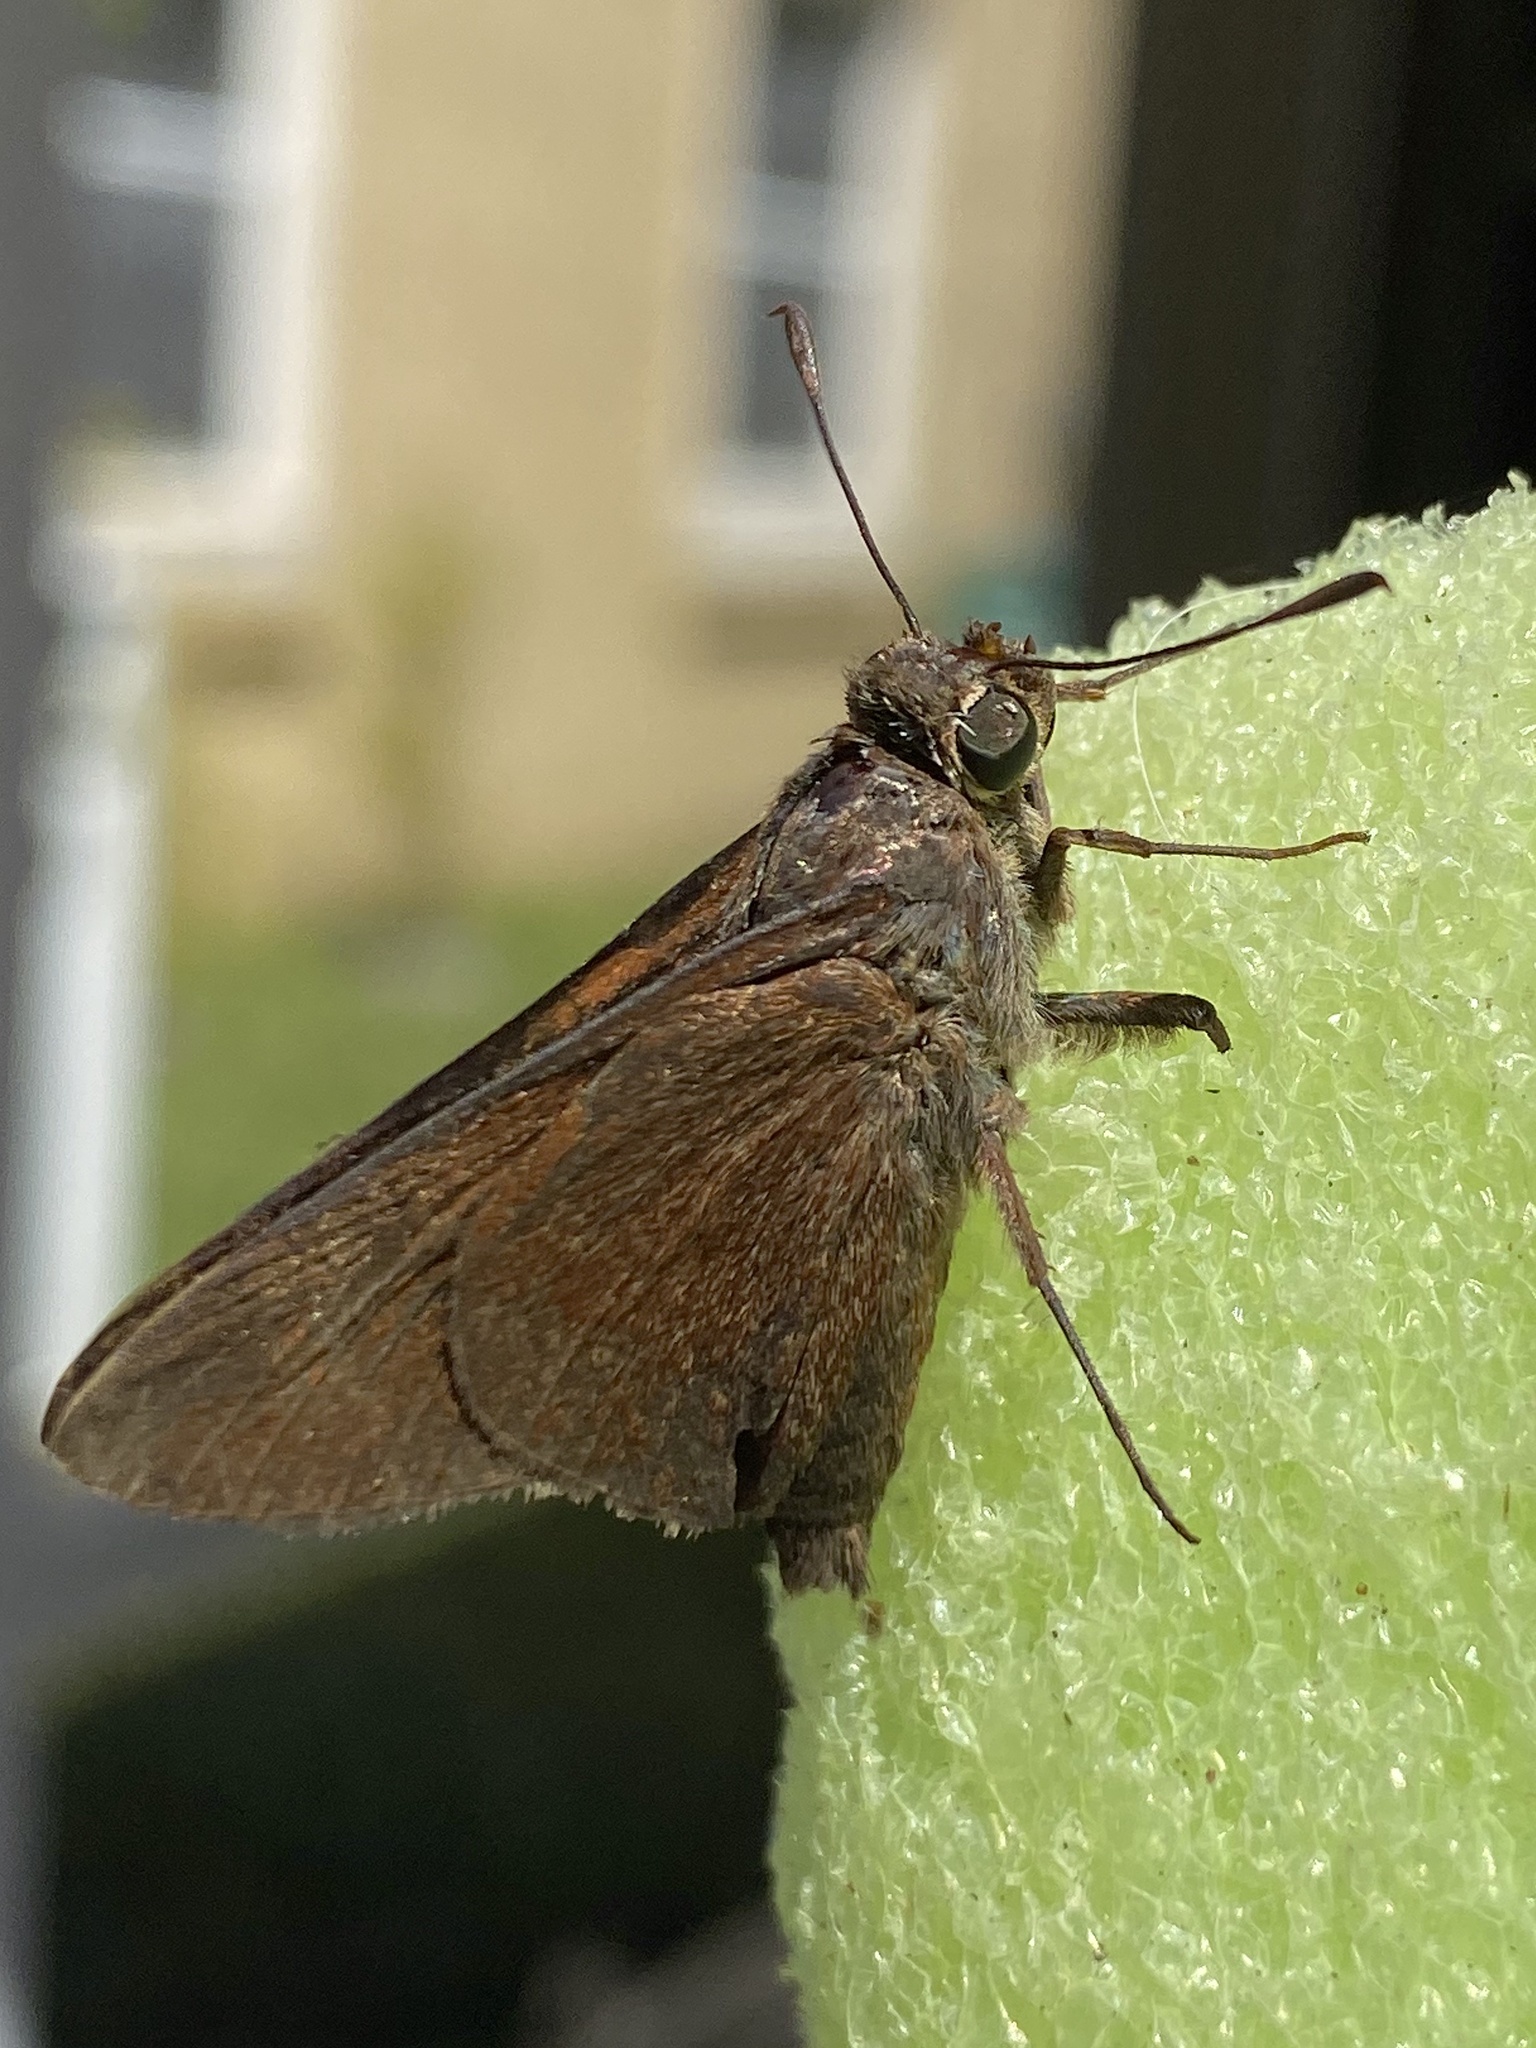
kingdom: Animalia
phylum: Arthropoda
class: Insecta
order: Lepidoptera
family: Hesperiidae
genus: Asbolis
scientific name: Asbolis capucinus
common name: Monk skipper
